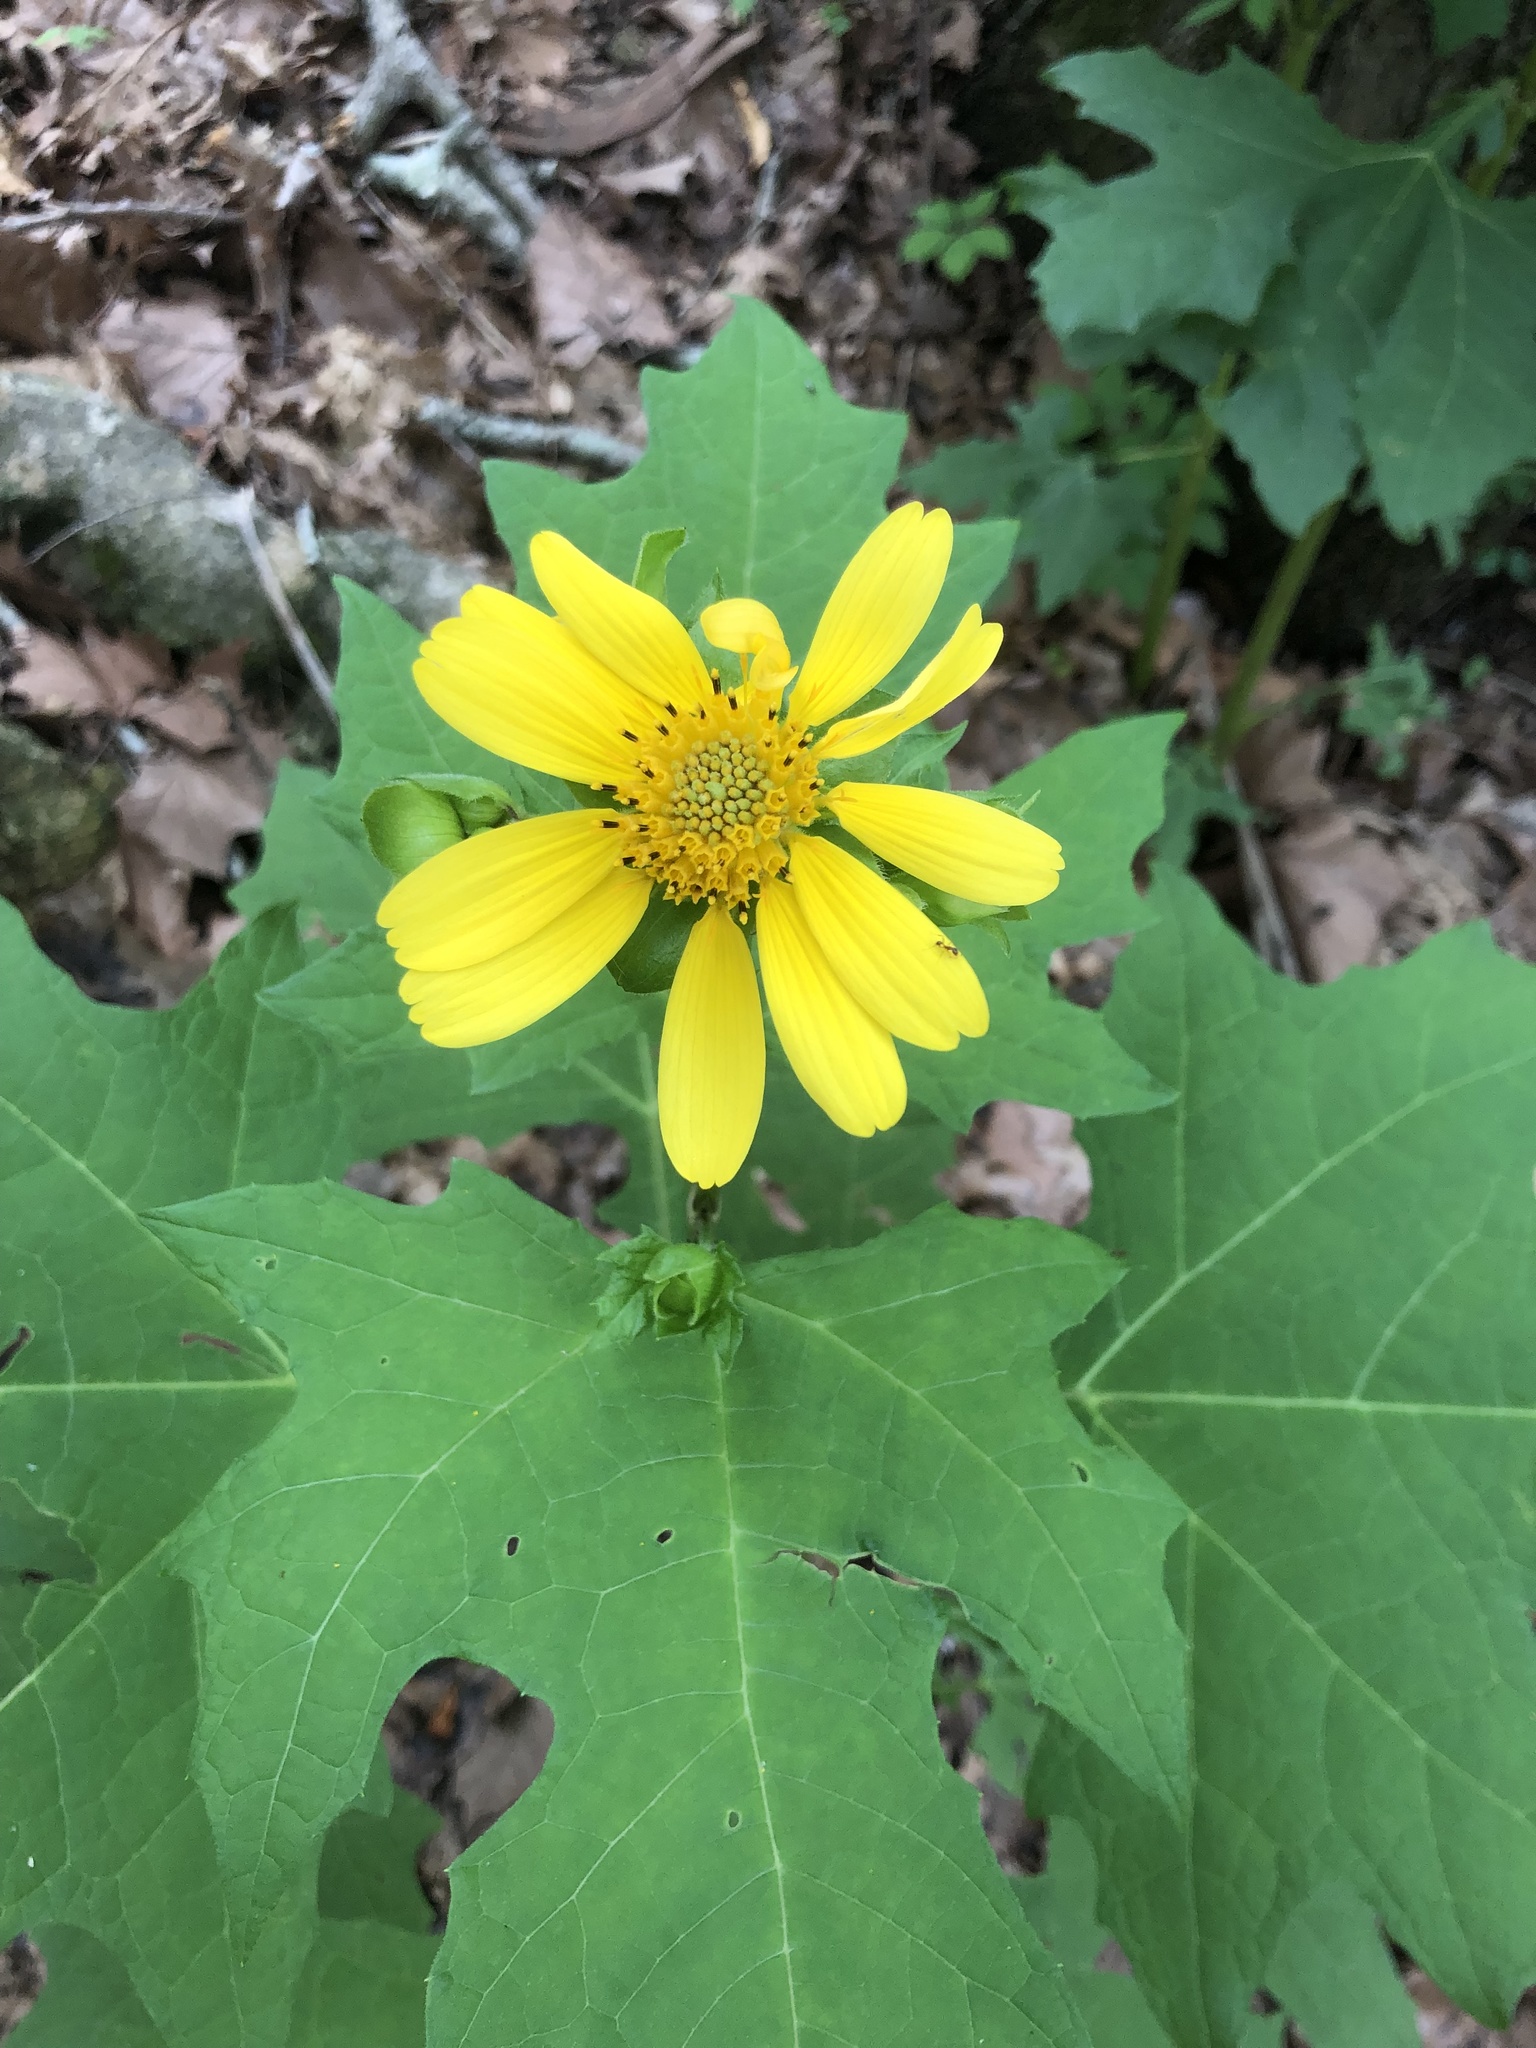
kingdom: Plantae
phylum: Tracheophyta
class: Magnoliopsida
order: Asterales
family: Asteraceae
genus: Smallanthus
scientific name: Smallanthus uvedalia
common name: Bear's-foot
